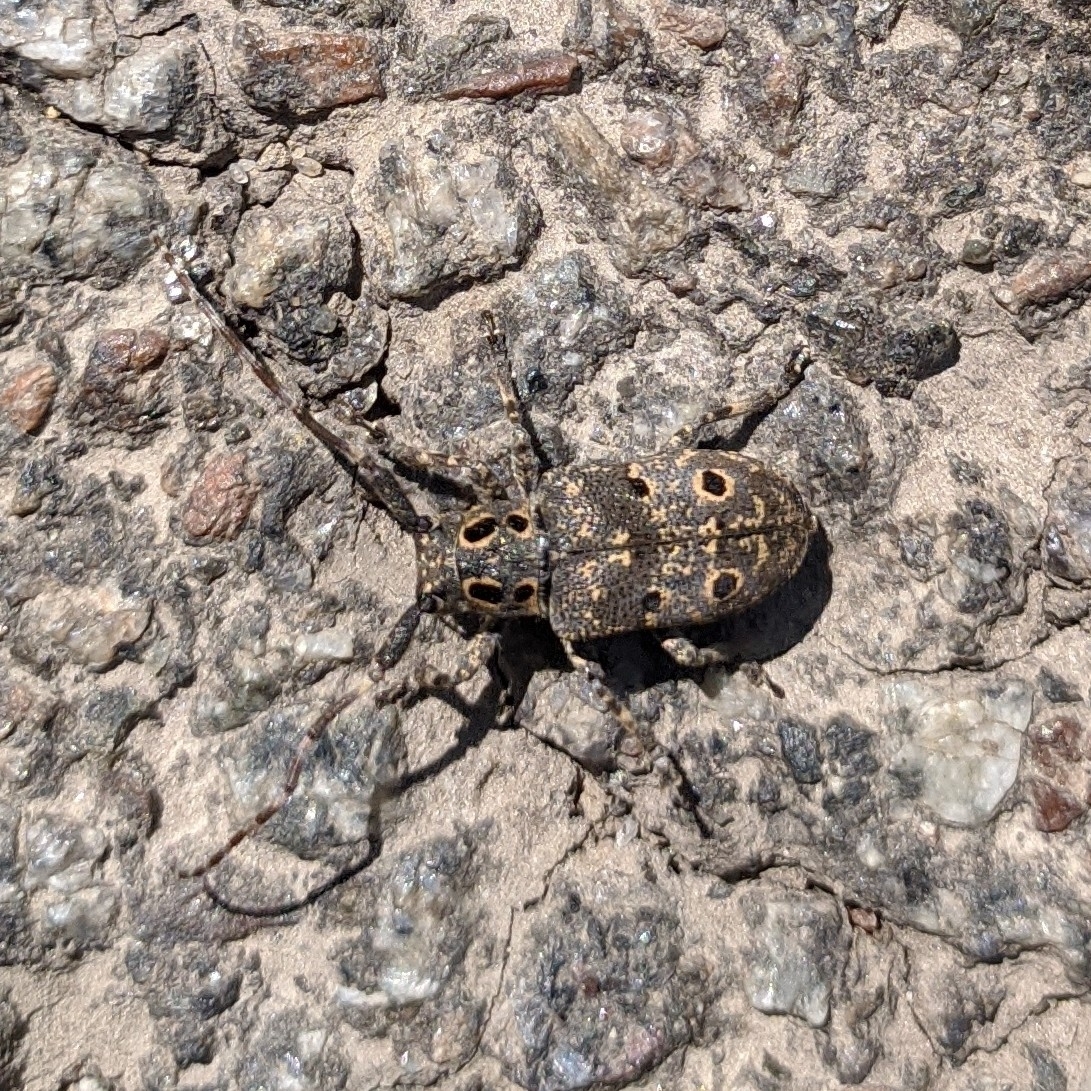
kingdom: Animalia
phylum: Arthropoda
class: Insecta
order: Coleoptera
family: Cerambycidae
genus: Mesosa
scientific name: Mesosa curculionoides
